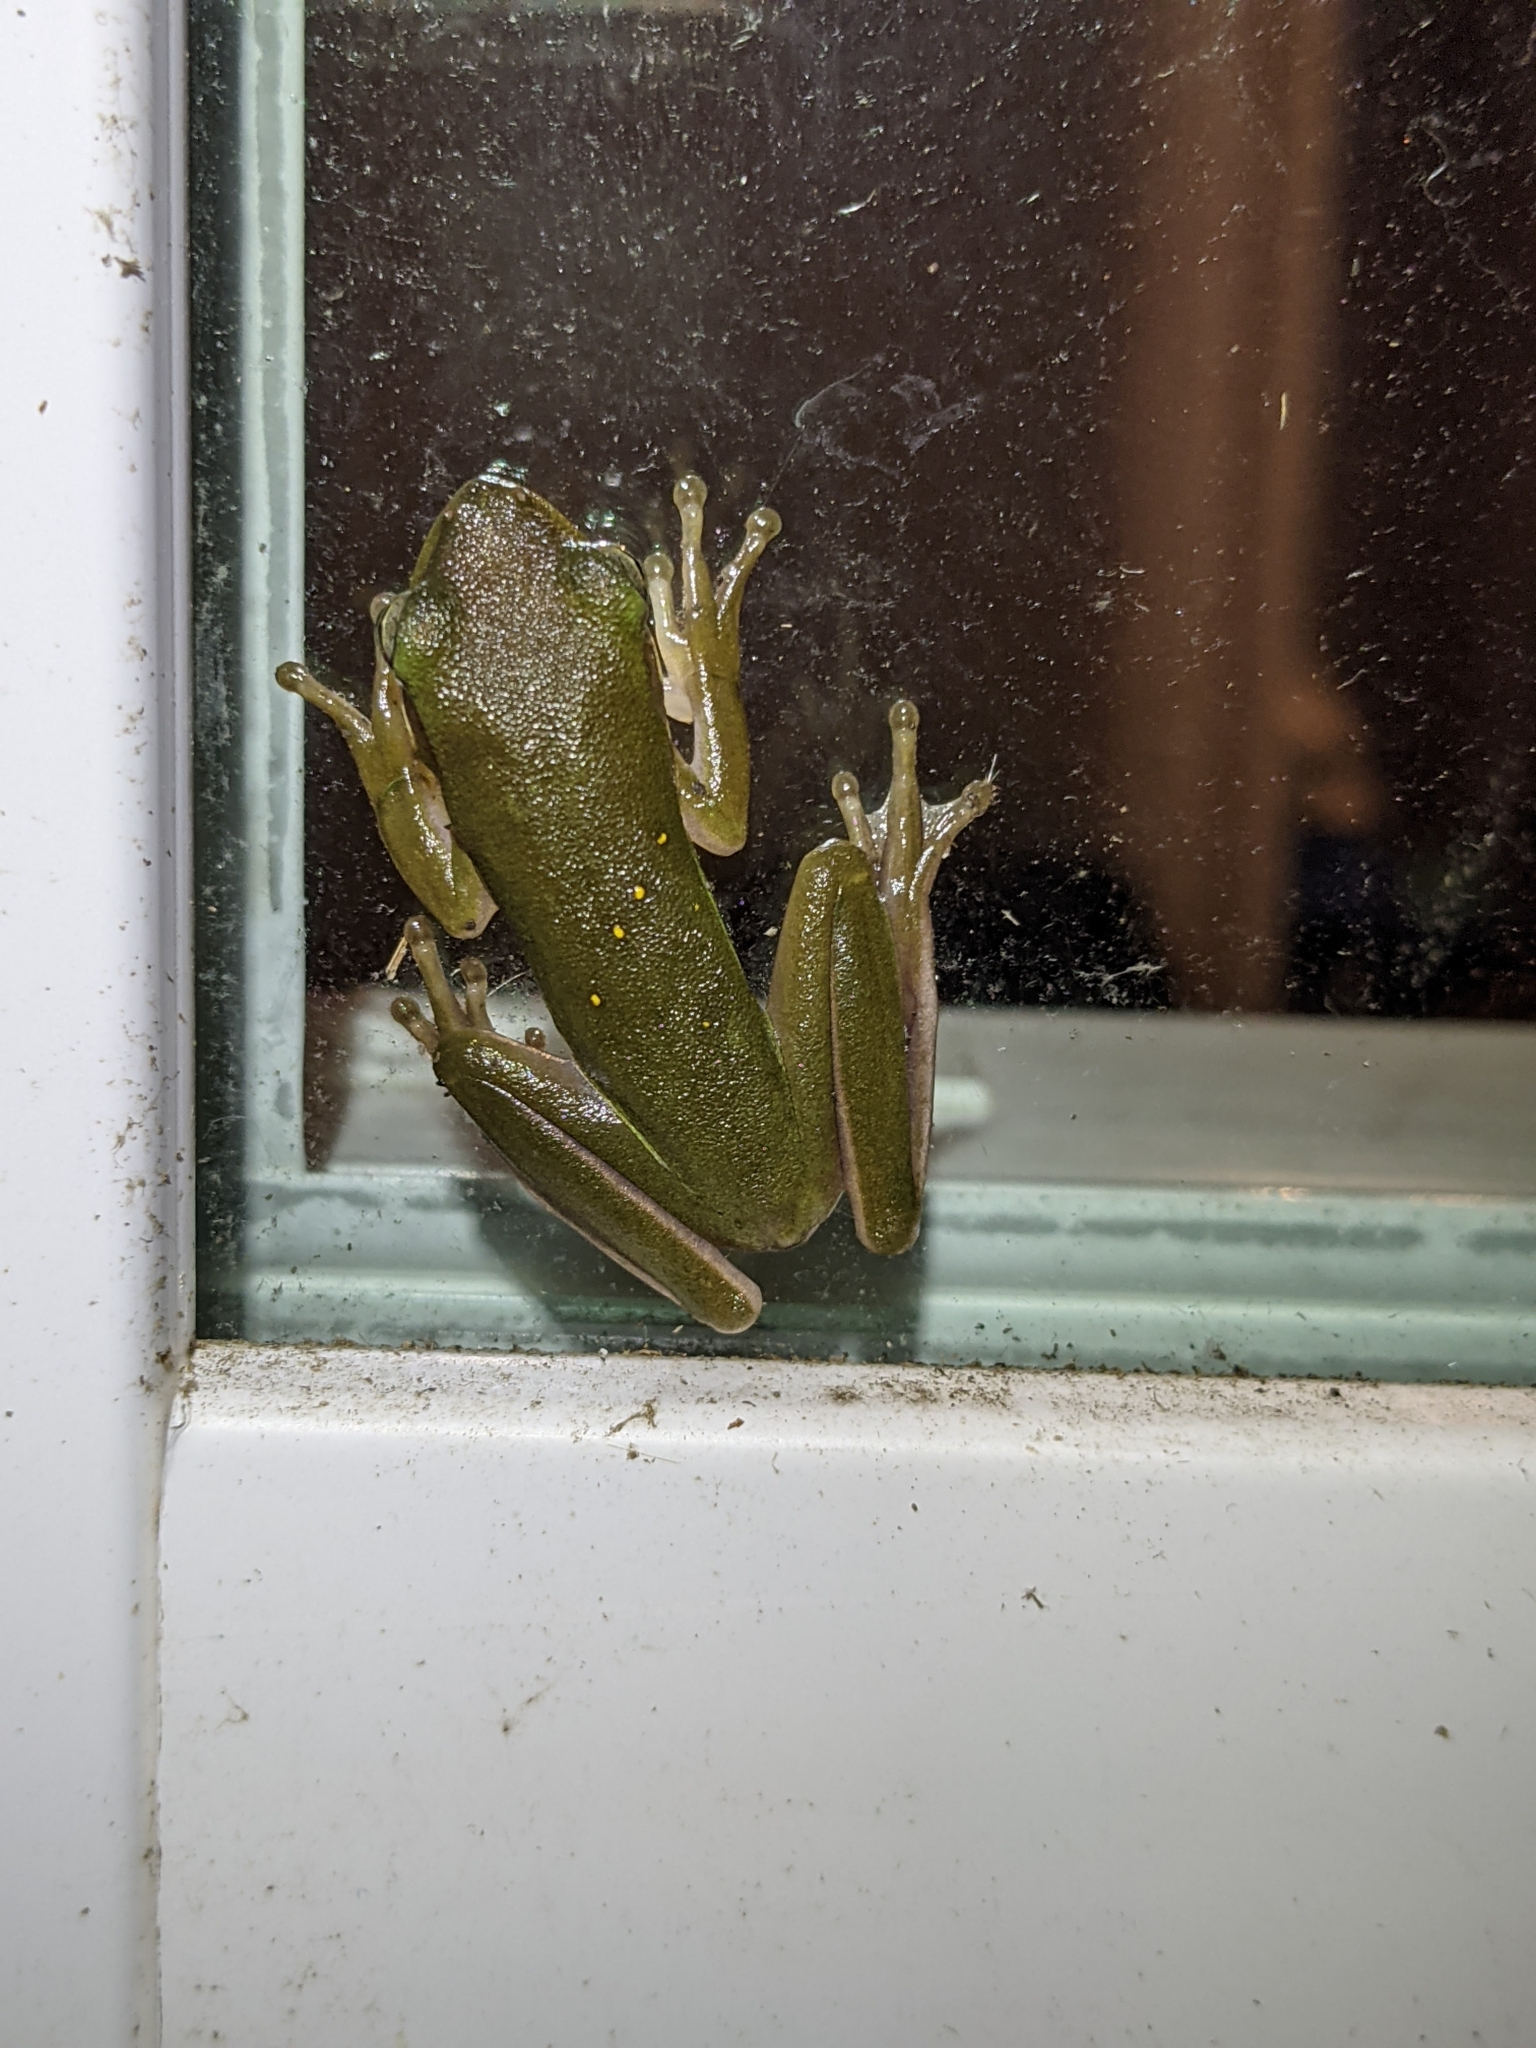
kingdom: Animalia
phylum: Chordata
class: Amphibia
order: Anura
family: Hylidae
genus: Dryophytes
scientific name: Dryophytes cinereus
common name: Green treefrog
